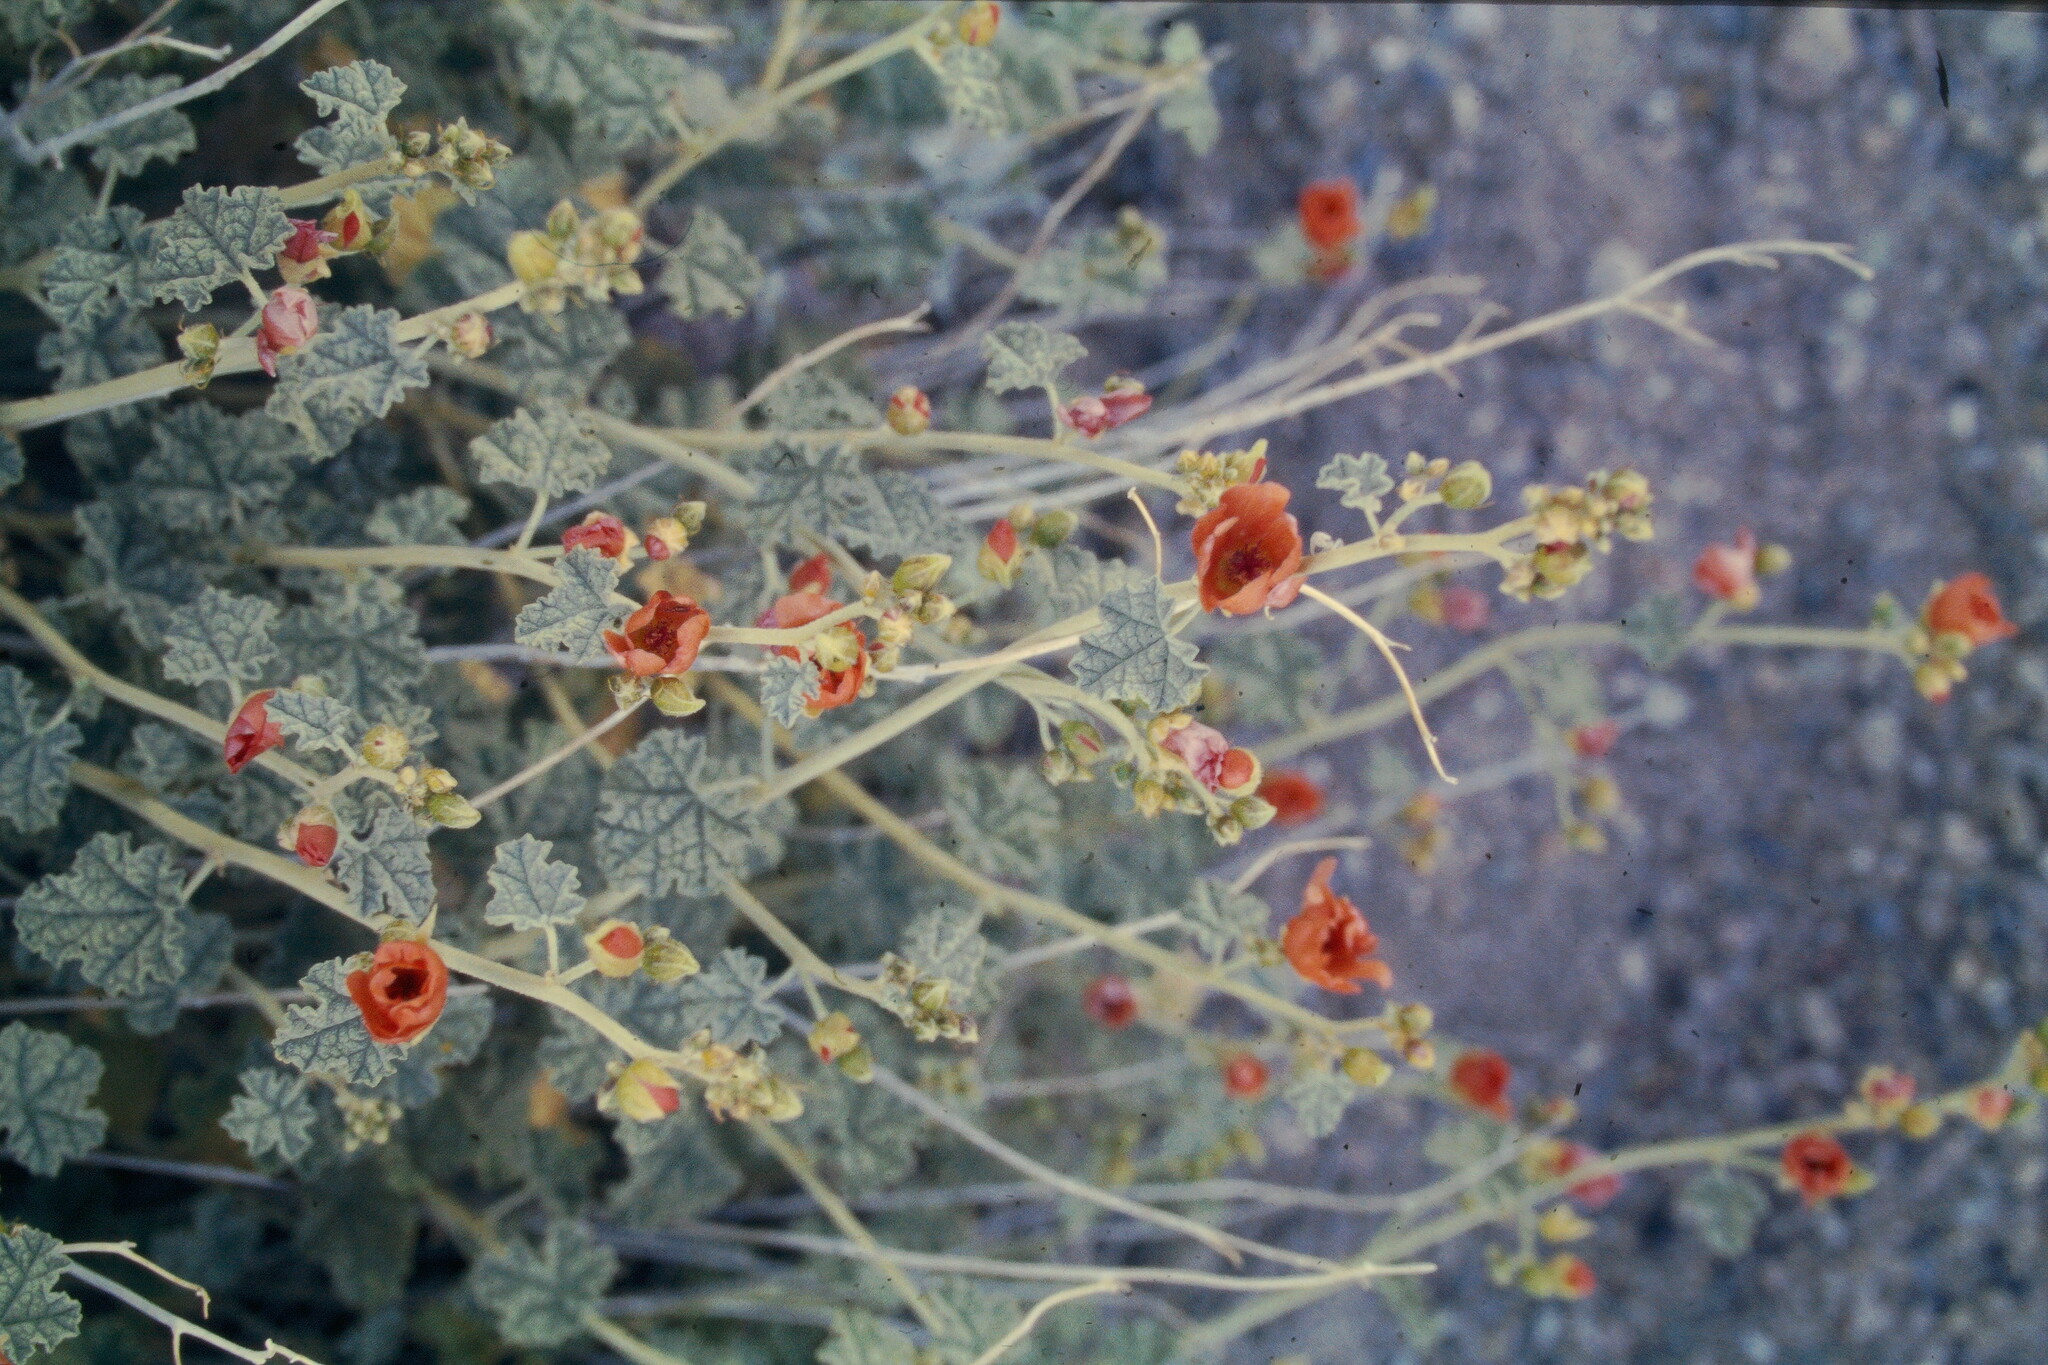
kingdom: Plantae
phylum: Tracheophyta
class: Magnoliopsida
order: Malvales
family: Malvaceae
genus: Sphaeralcea
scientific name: Sphaeralcea ambigua
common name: Apricot globe-mallow
